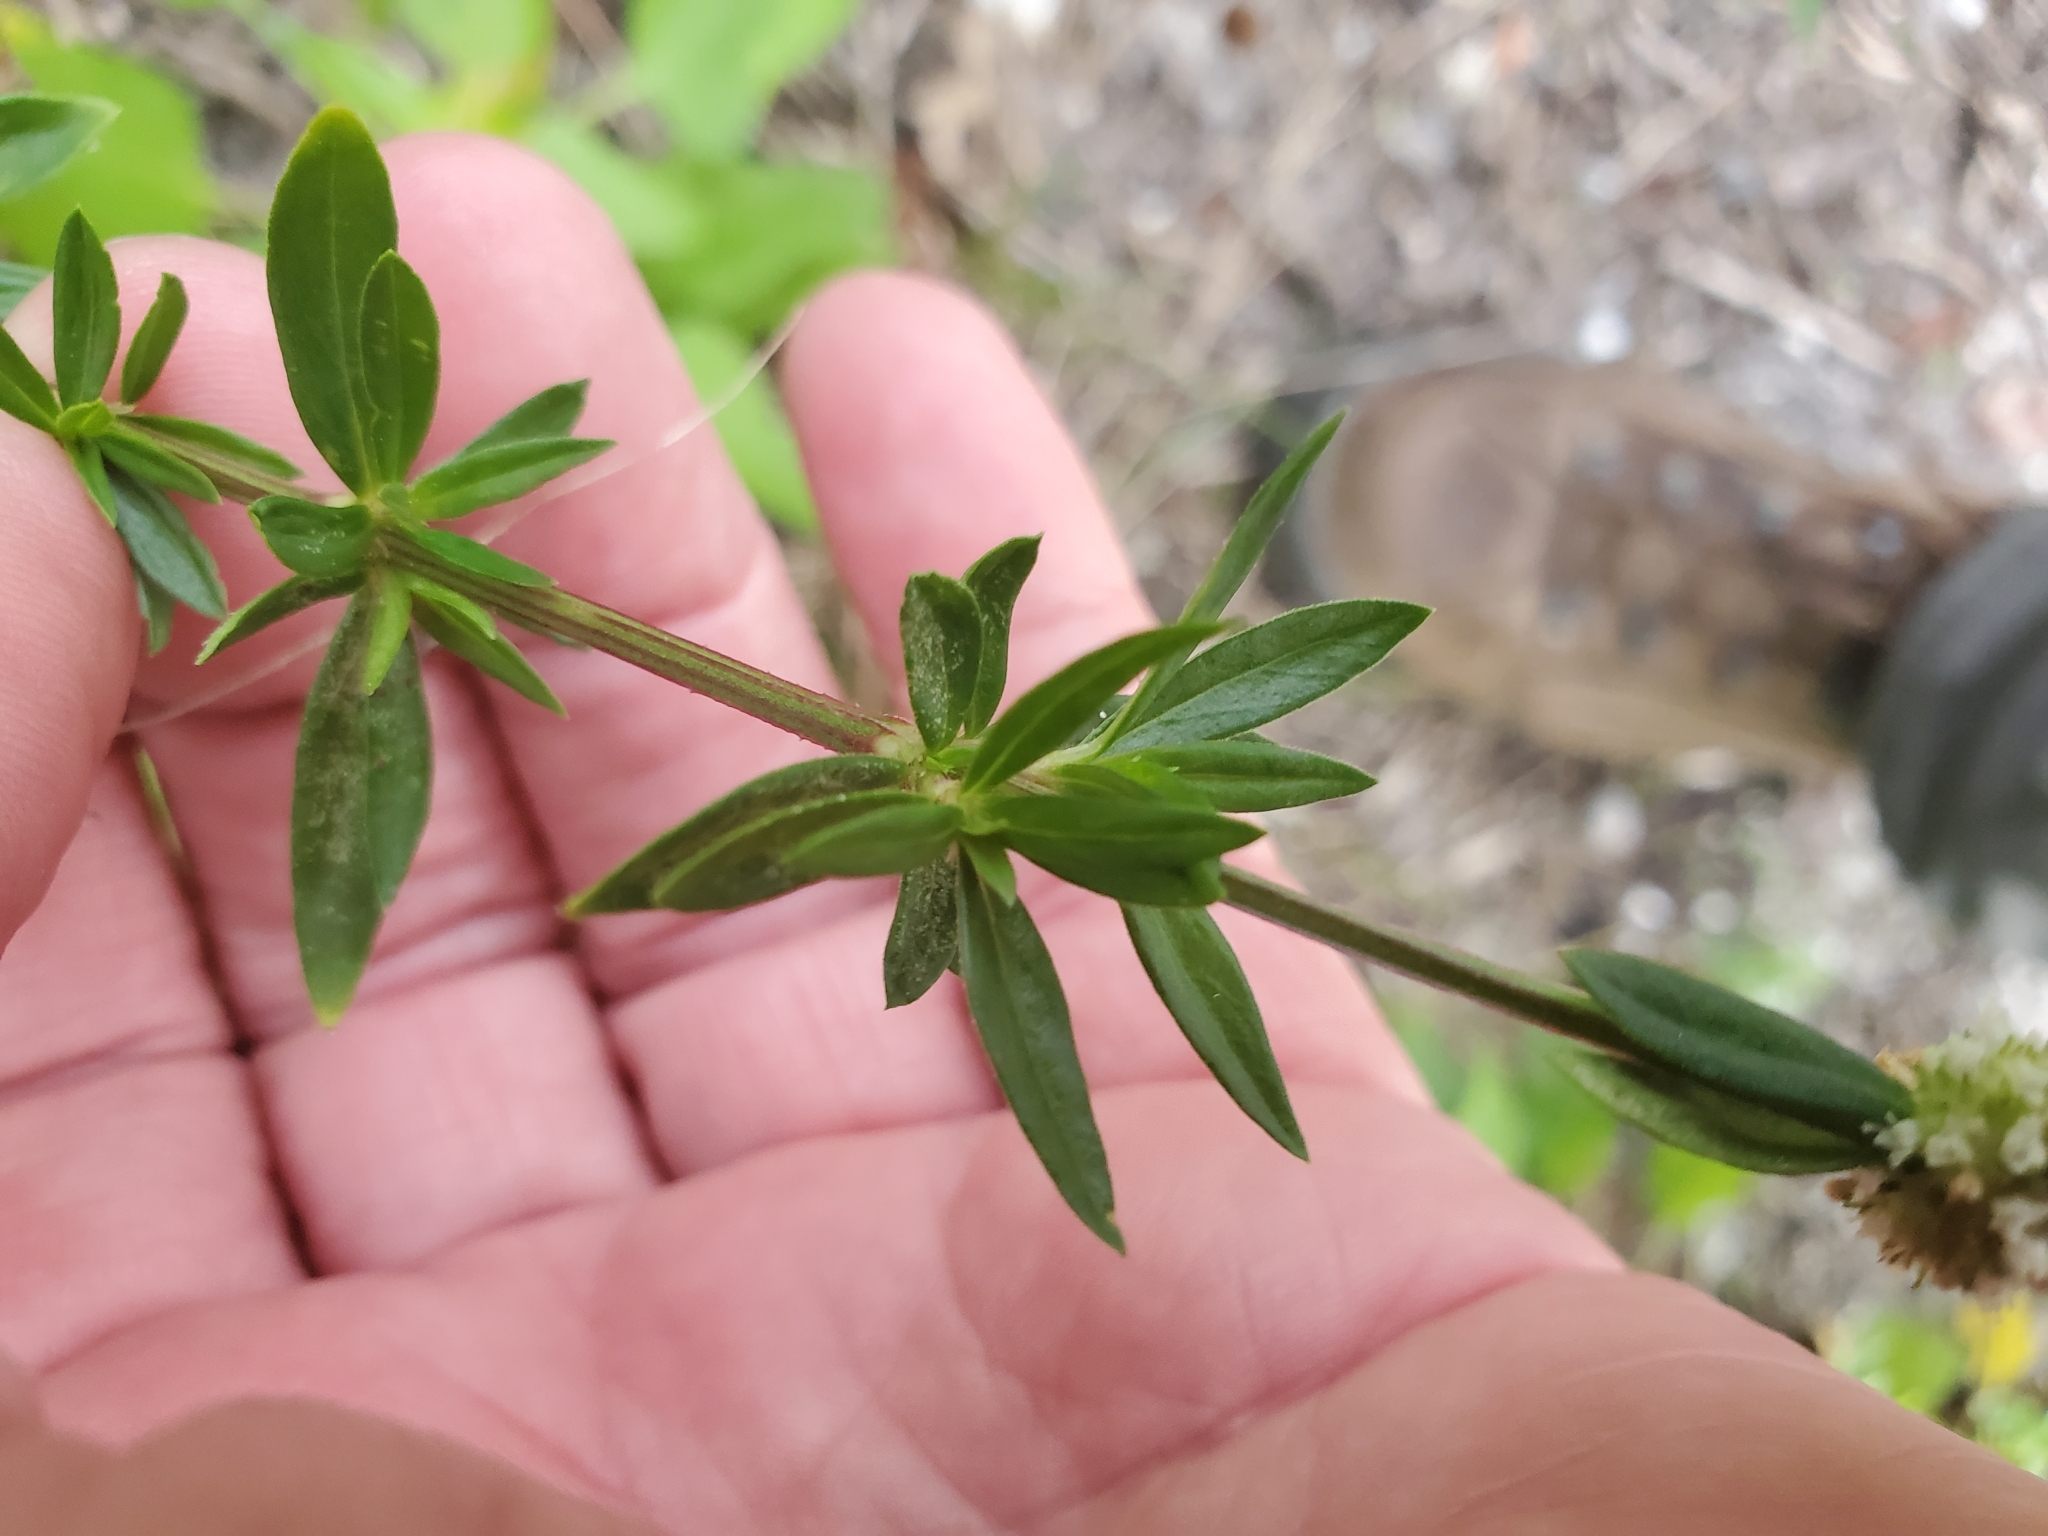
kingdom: Plantae
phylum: Tracheophyta
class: Magnoliopsida
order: Gentianales
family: Rubiaceae
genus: Spermacoce
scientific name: Spermacoce verticillata
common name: Shrubby false buttonweed
